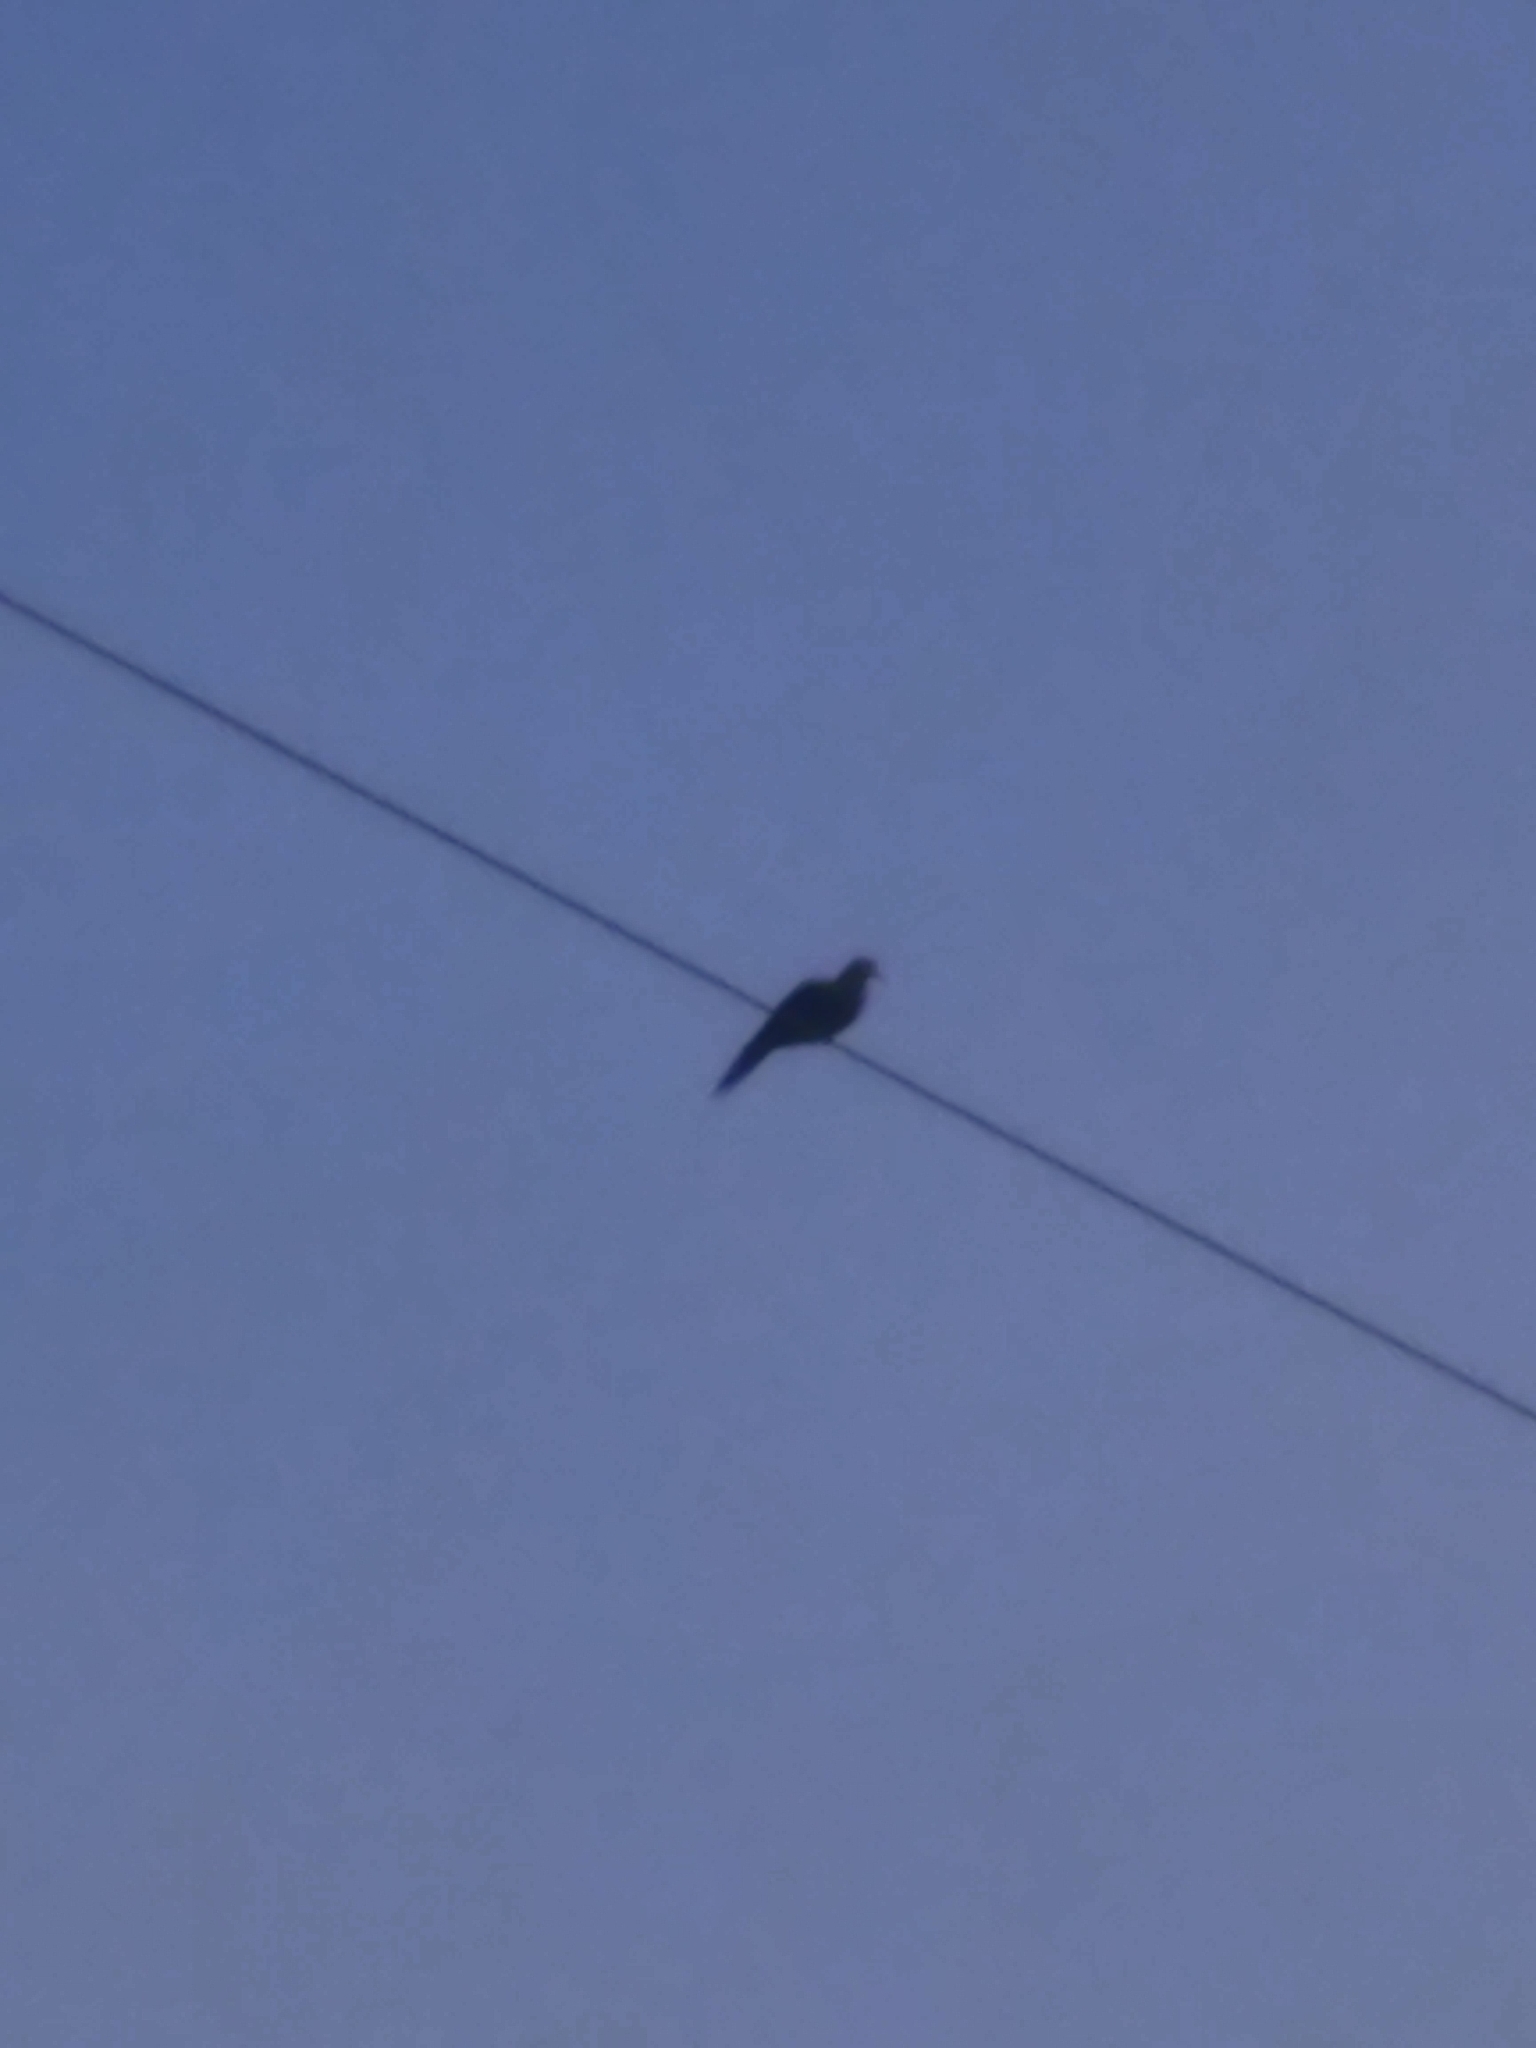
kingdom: Animalia
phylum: Chordata
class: Aves
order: Columbiformes
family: Columbidae
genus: Zenaida
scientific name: Zenaida macroura
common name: Mourning dove
